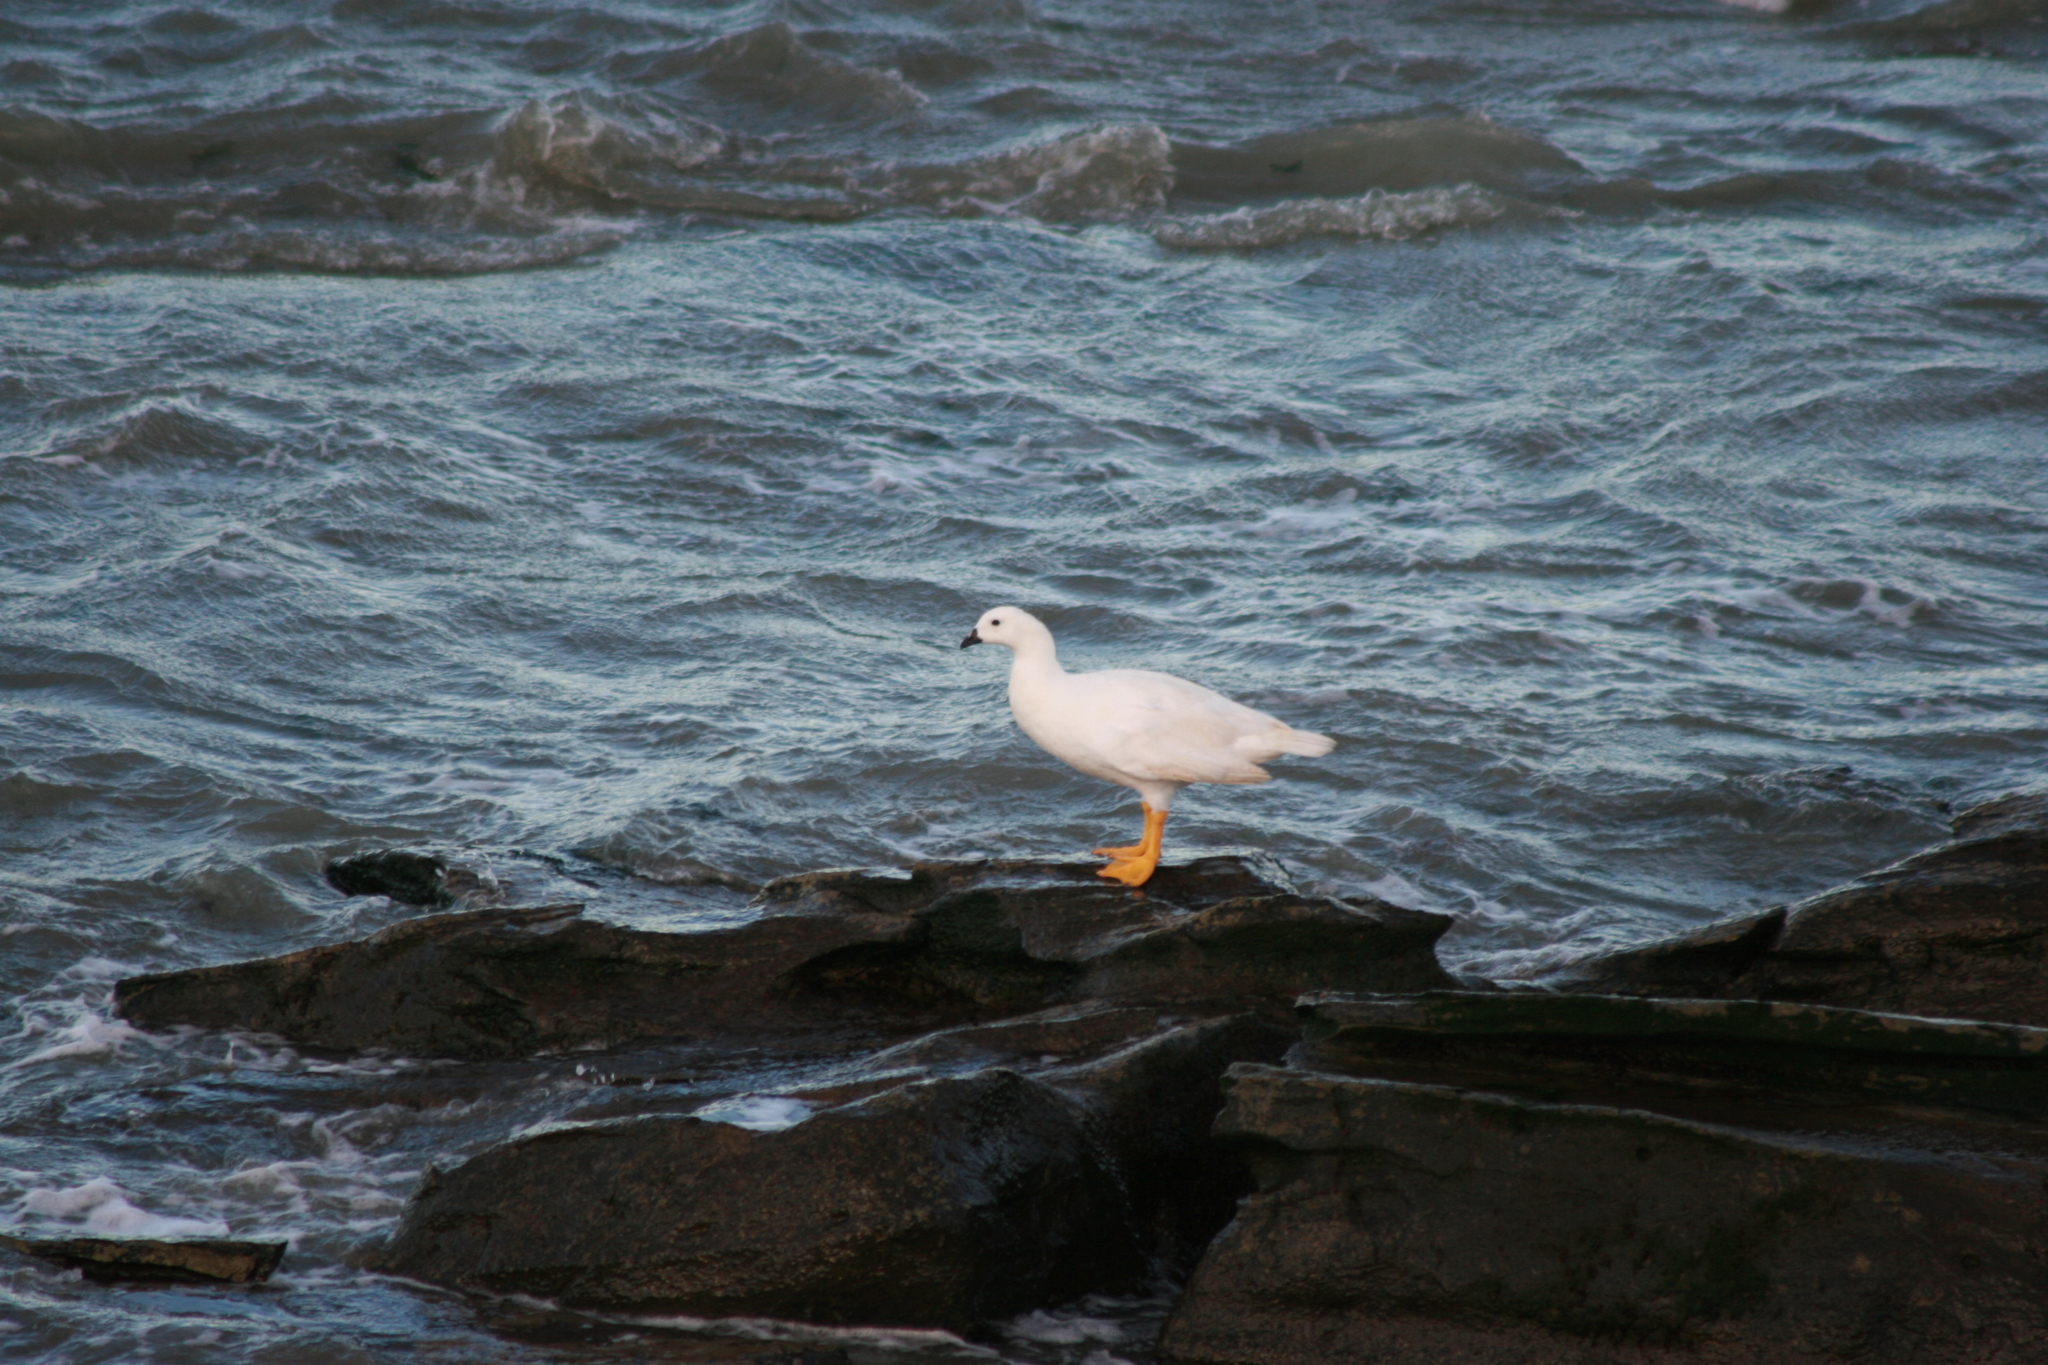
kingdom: Animalia
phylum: Chordata
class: Aves
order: Anseriformes
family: Anatidae
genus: Chloephaga
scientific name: Chloephaga hybrida
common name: Kelp goose
